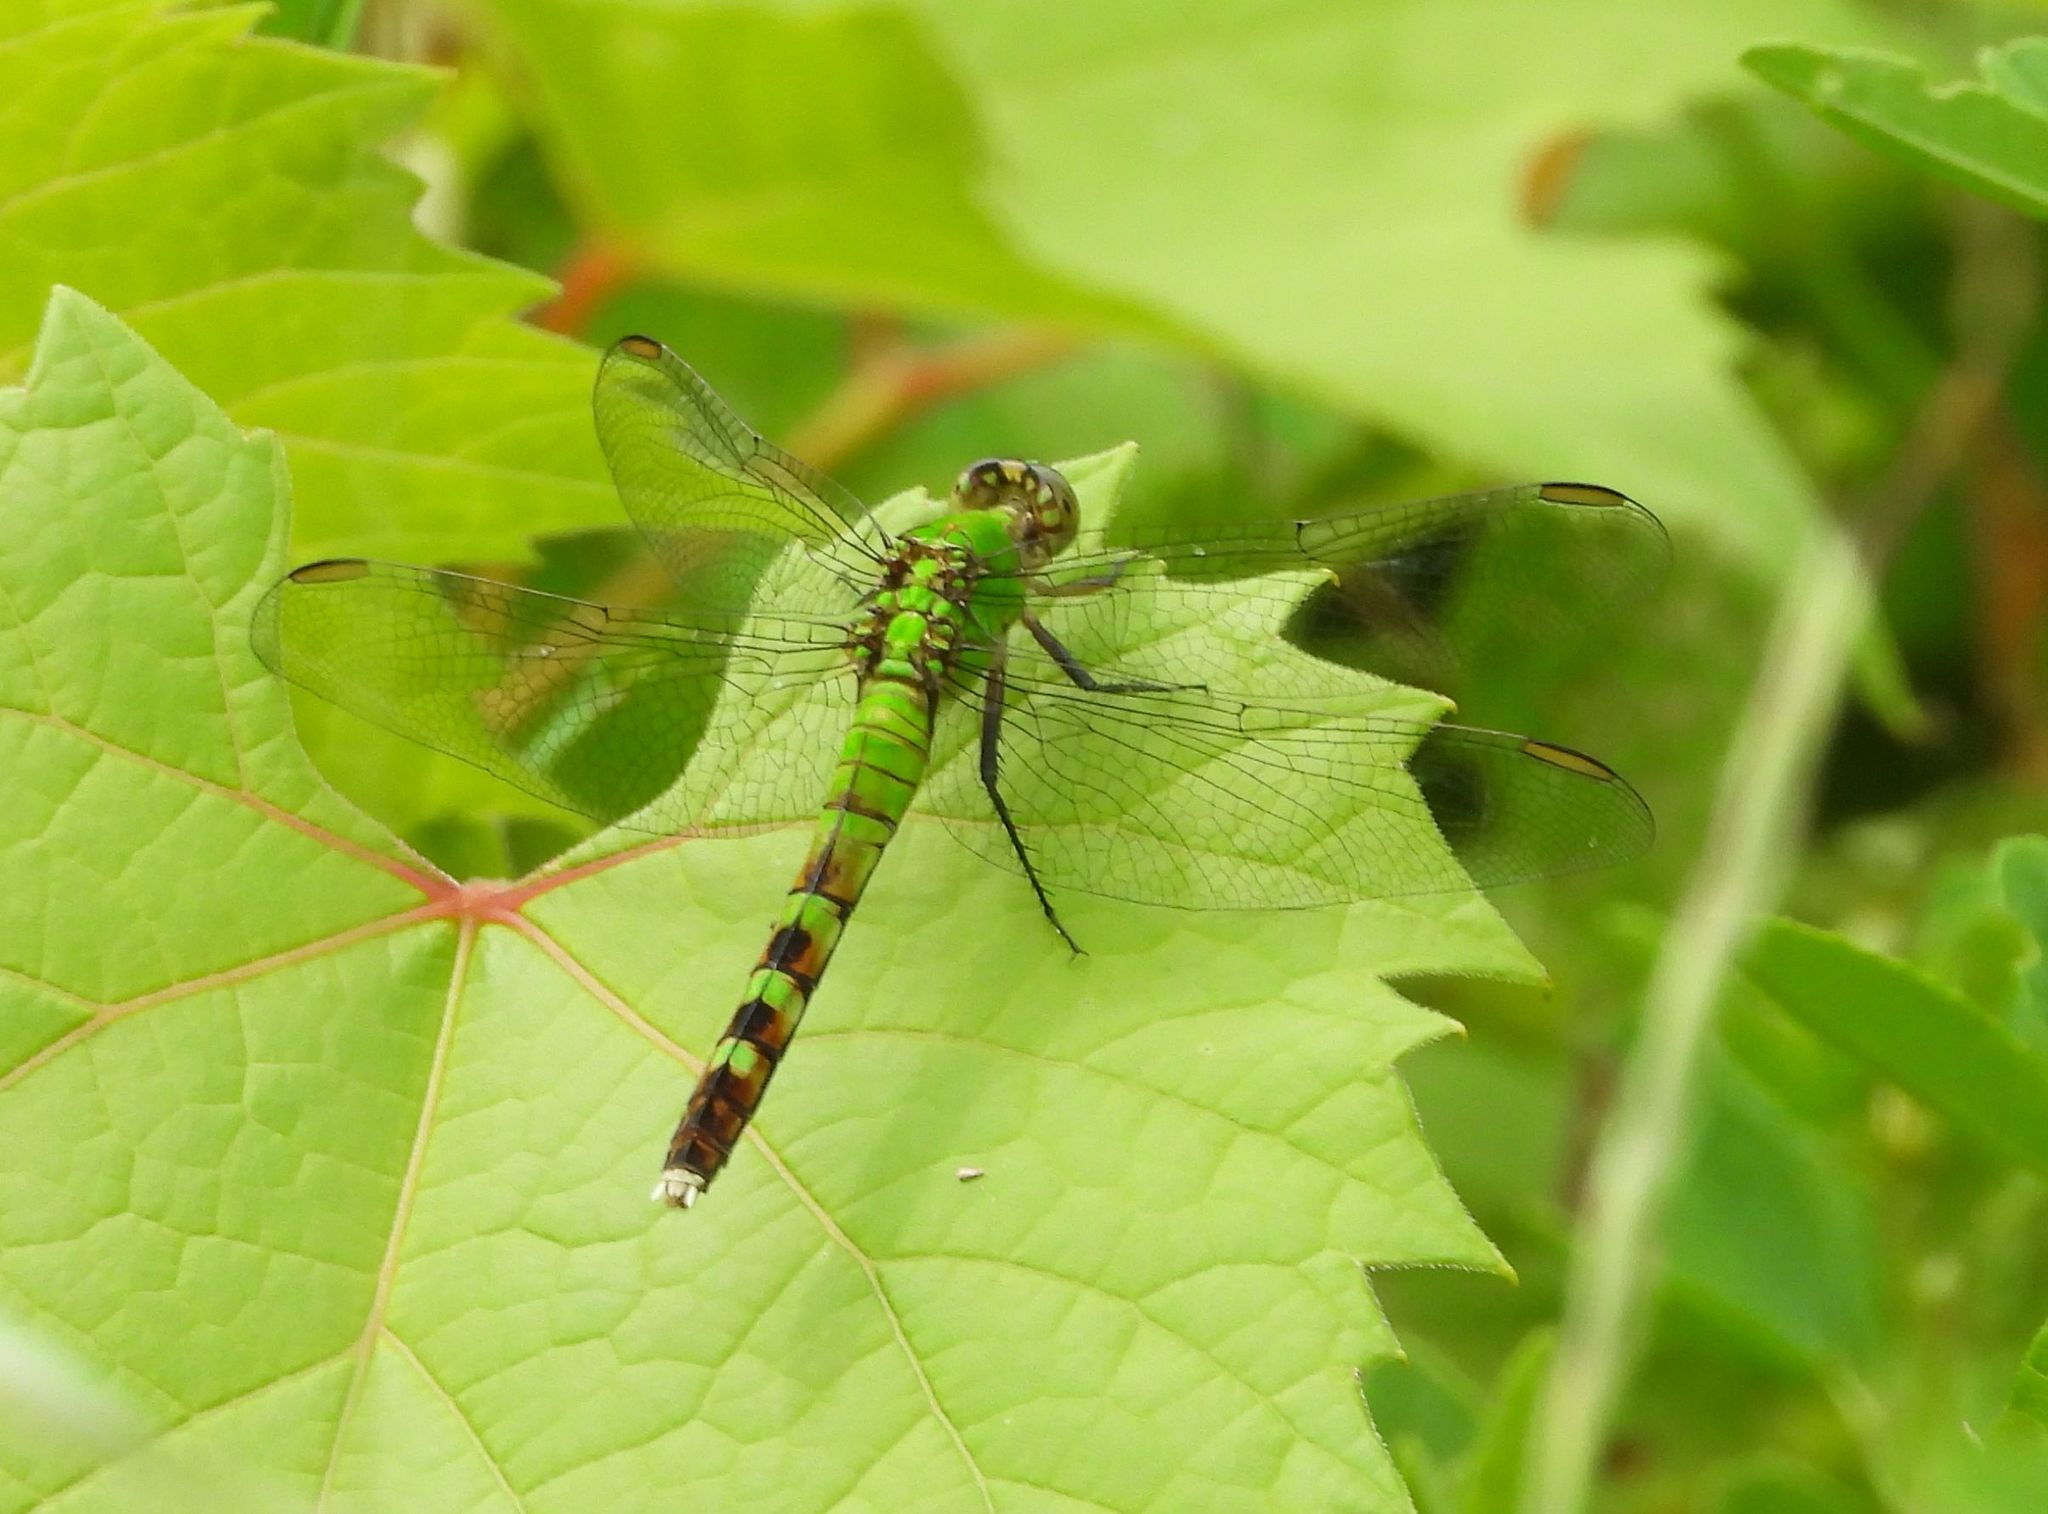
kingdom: Animalia
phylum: Arthropoda
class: Insecta
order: Odonata
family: Libellulidae
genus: Erythemis
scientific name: Erythemis simplicicollis
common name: Eastern pondhawk
